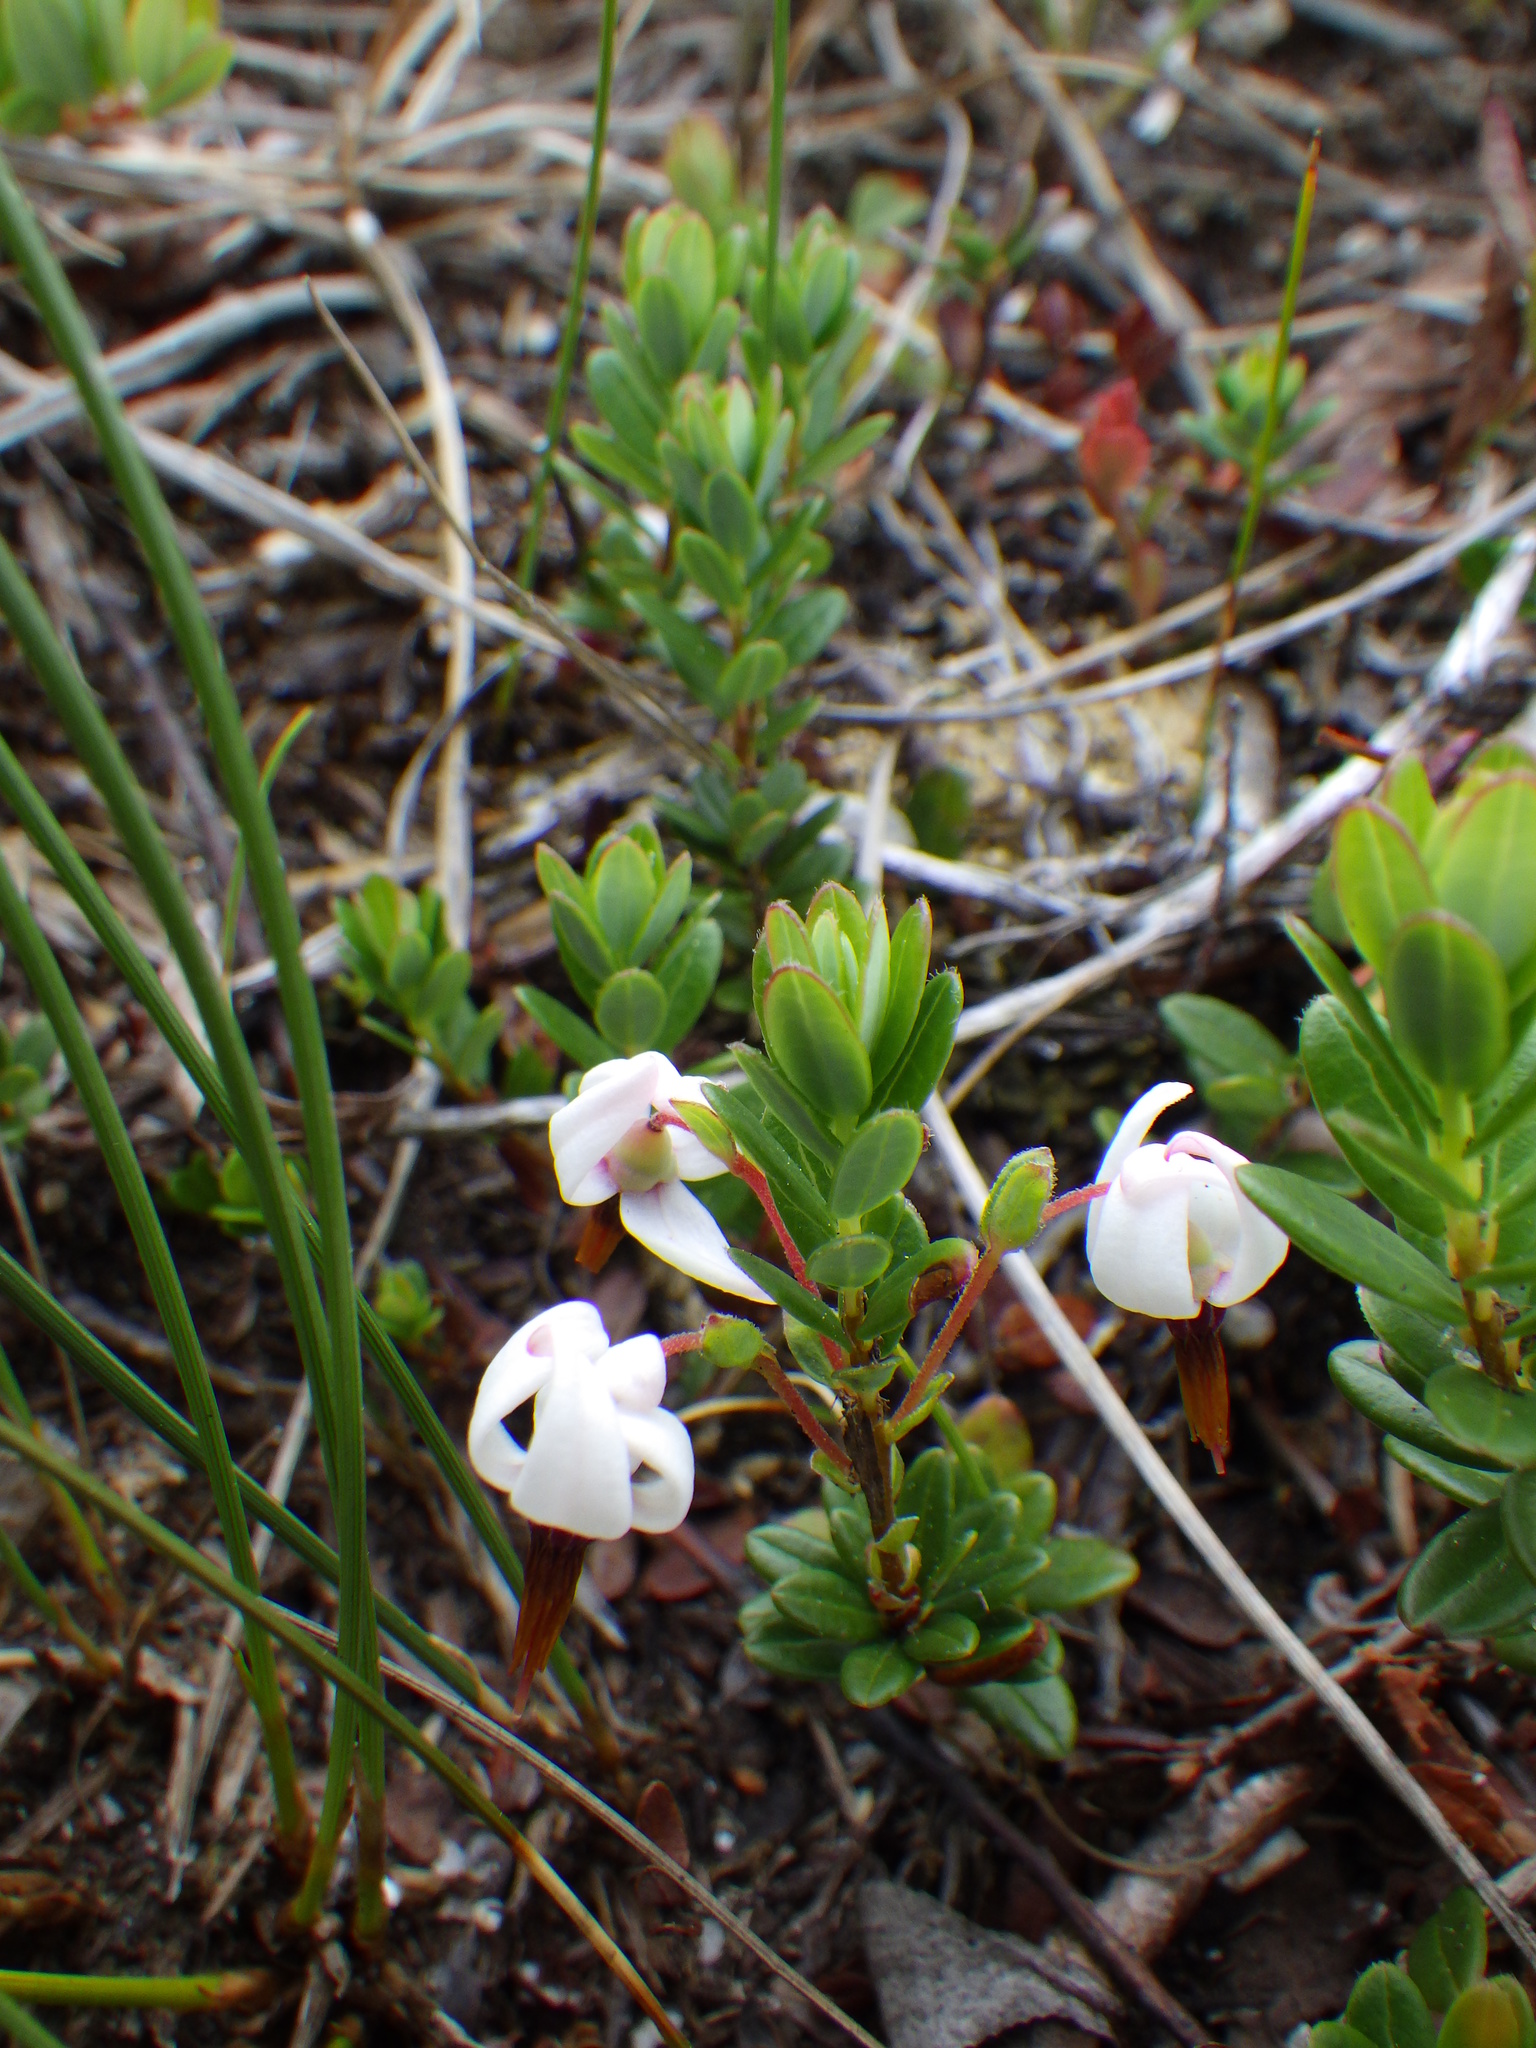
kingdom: Plantae
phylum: Tracheophyta
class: Magnoliopsida
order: Ericales
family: Ericaceae
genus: Vaccinium
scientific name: Vaccinium macrocarpon
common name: American cranberry
